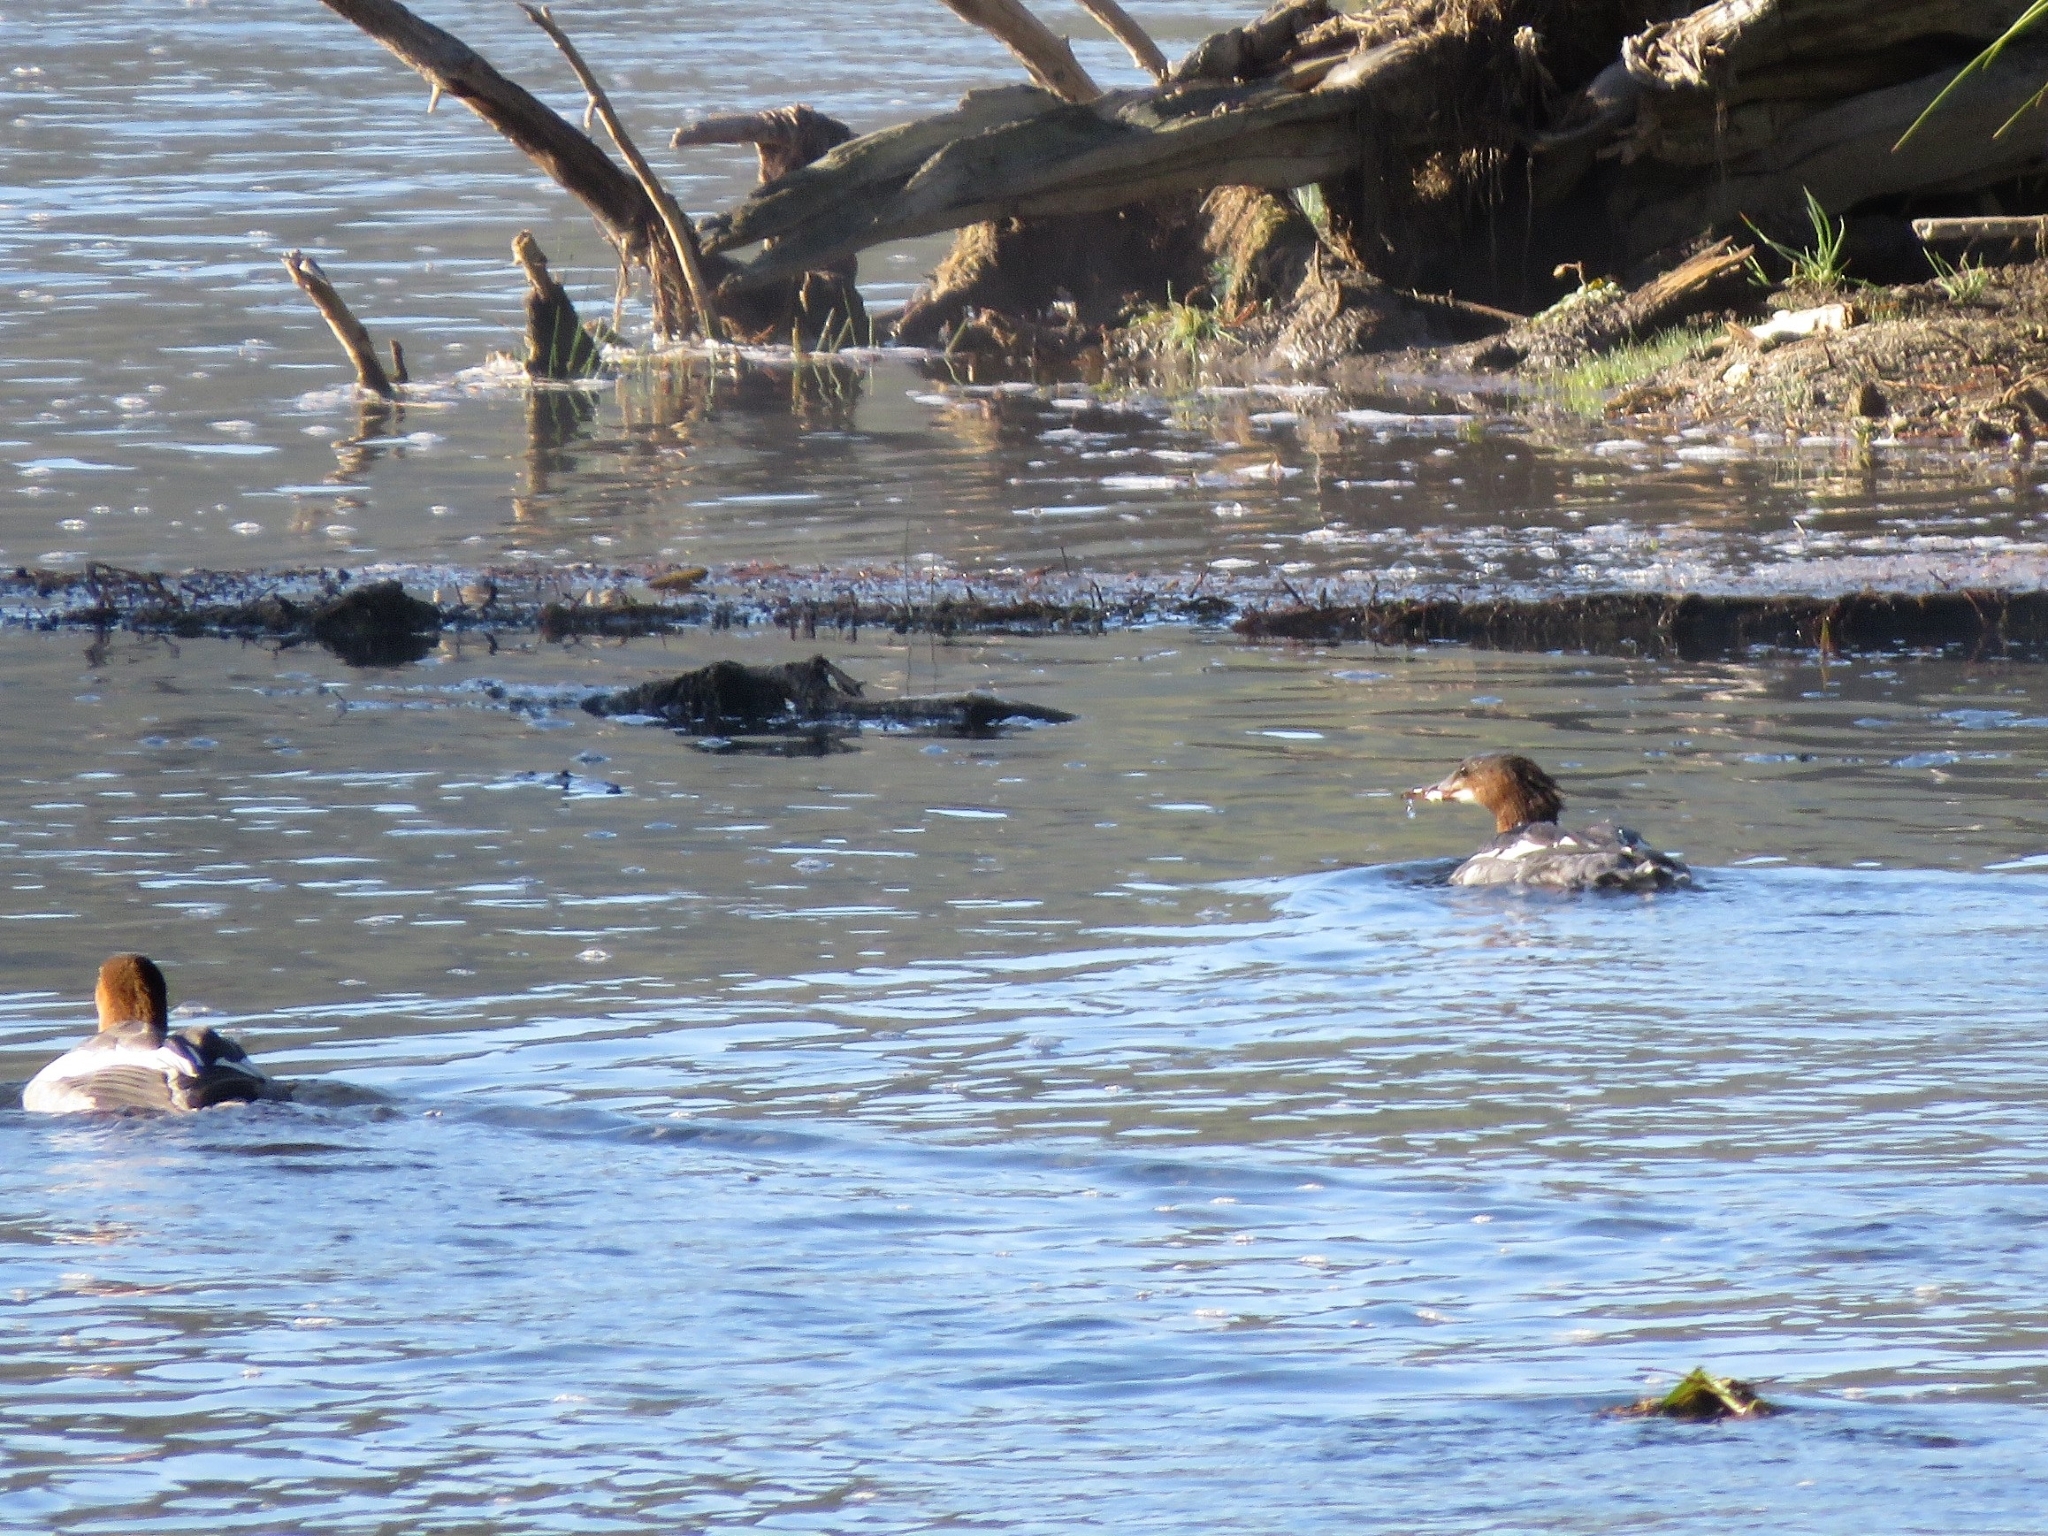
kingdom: Animalia
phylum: Chordata
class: Aves
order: Anseriformes
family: Anatidae
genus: Mergus
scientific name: Mergus merganser
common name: Common merganser
